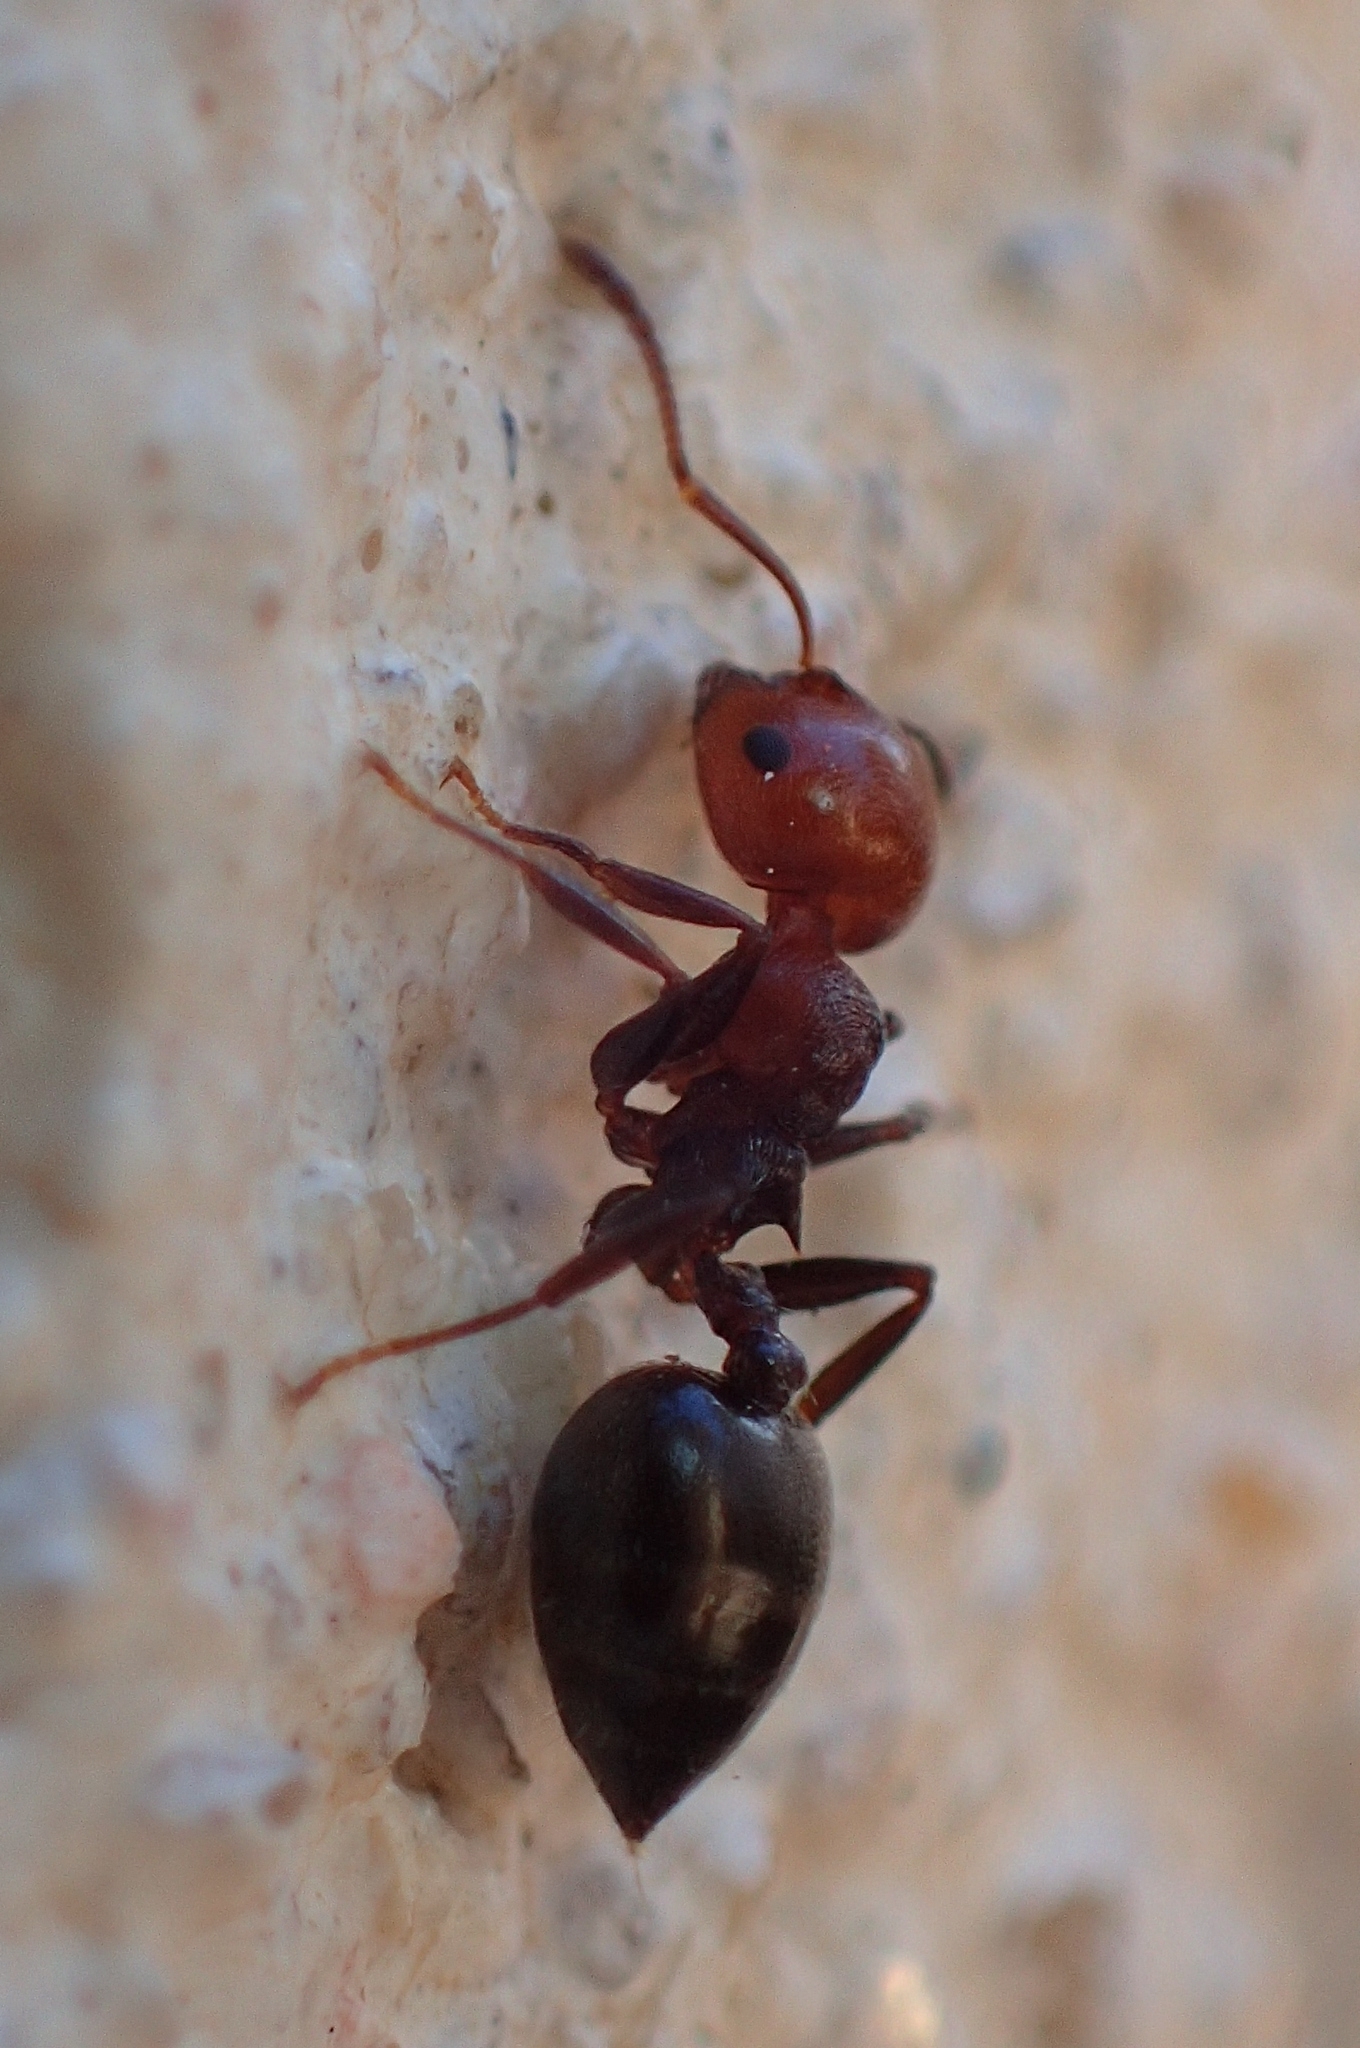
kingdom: Animalia
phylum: Arthropoda
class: Insecta
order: Hymenoptera
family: Formicidae
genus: Crematogaster
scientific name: Crematogaster scutellaris
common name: Fourmi du liège
